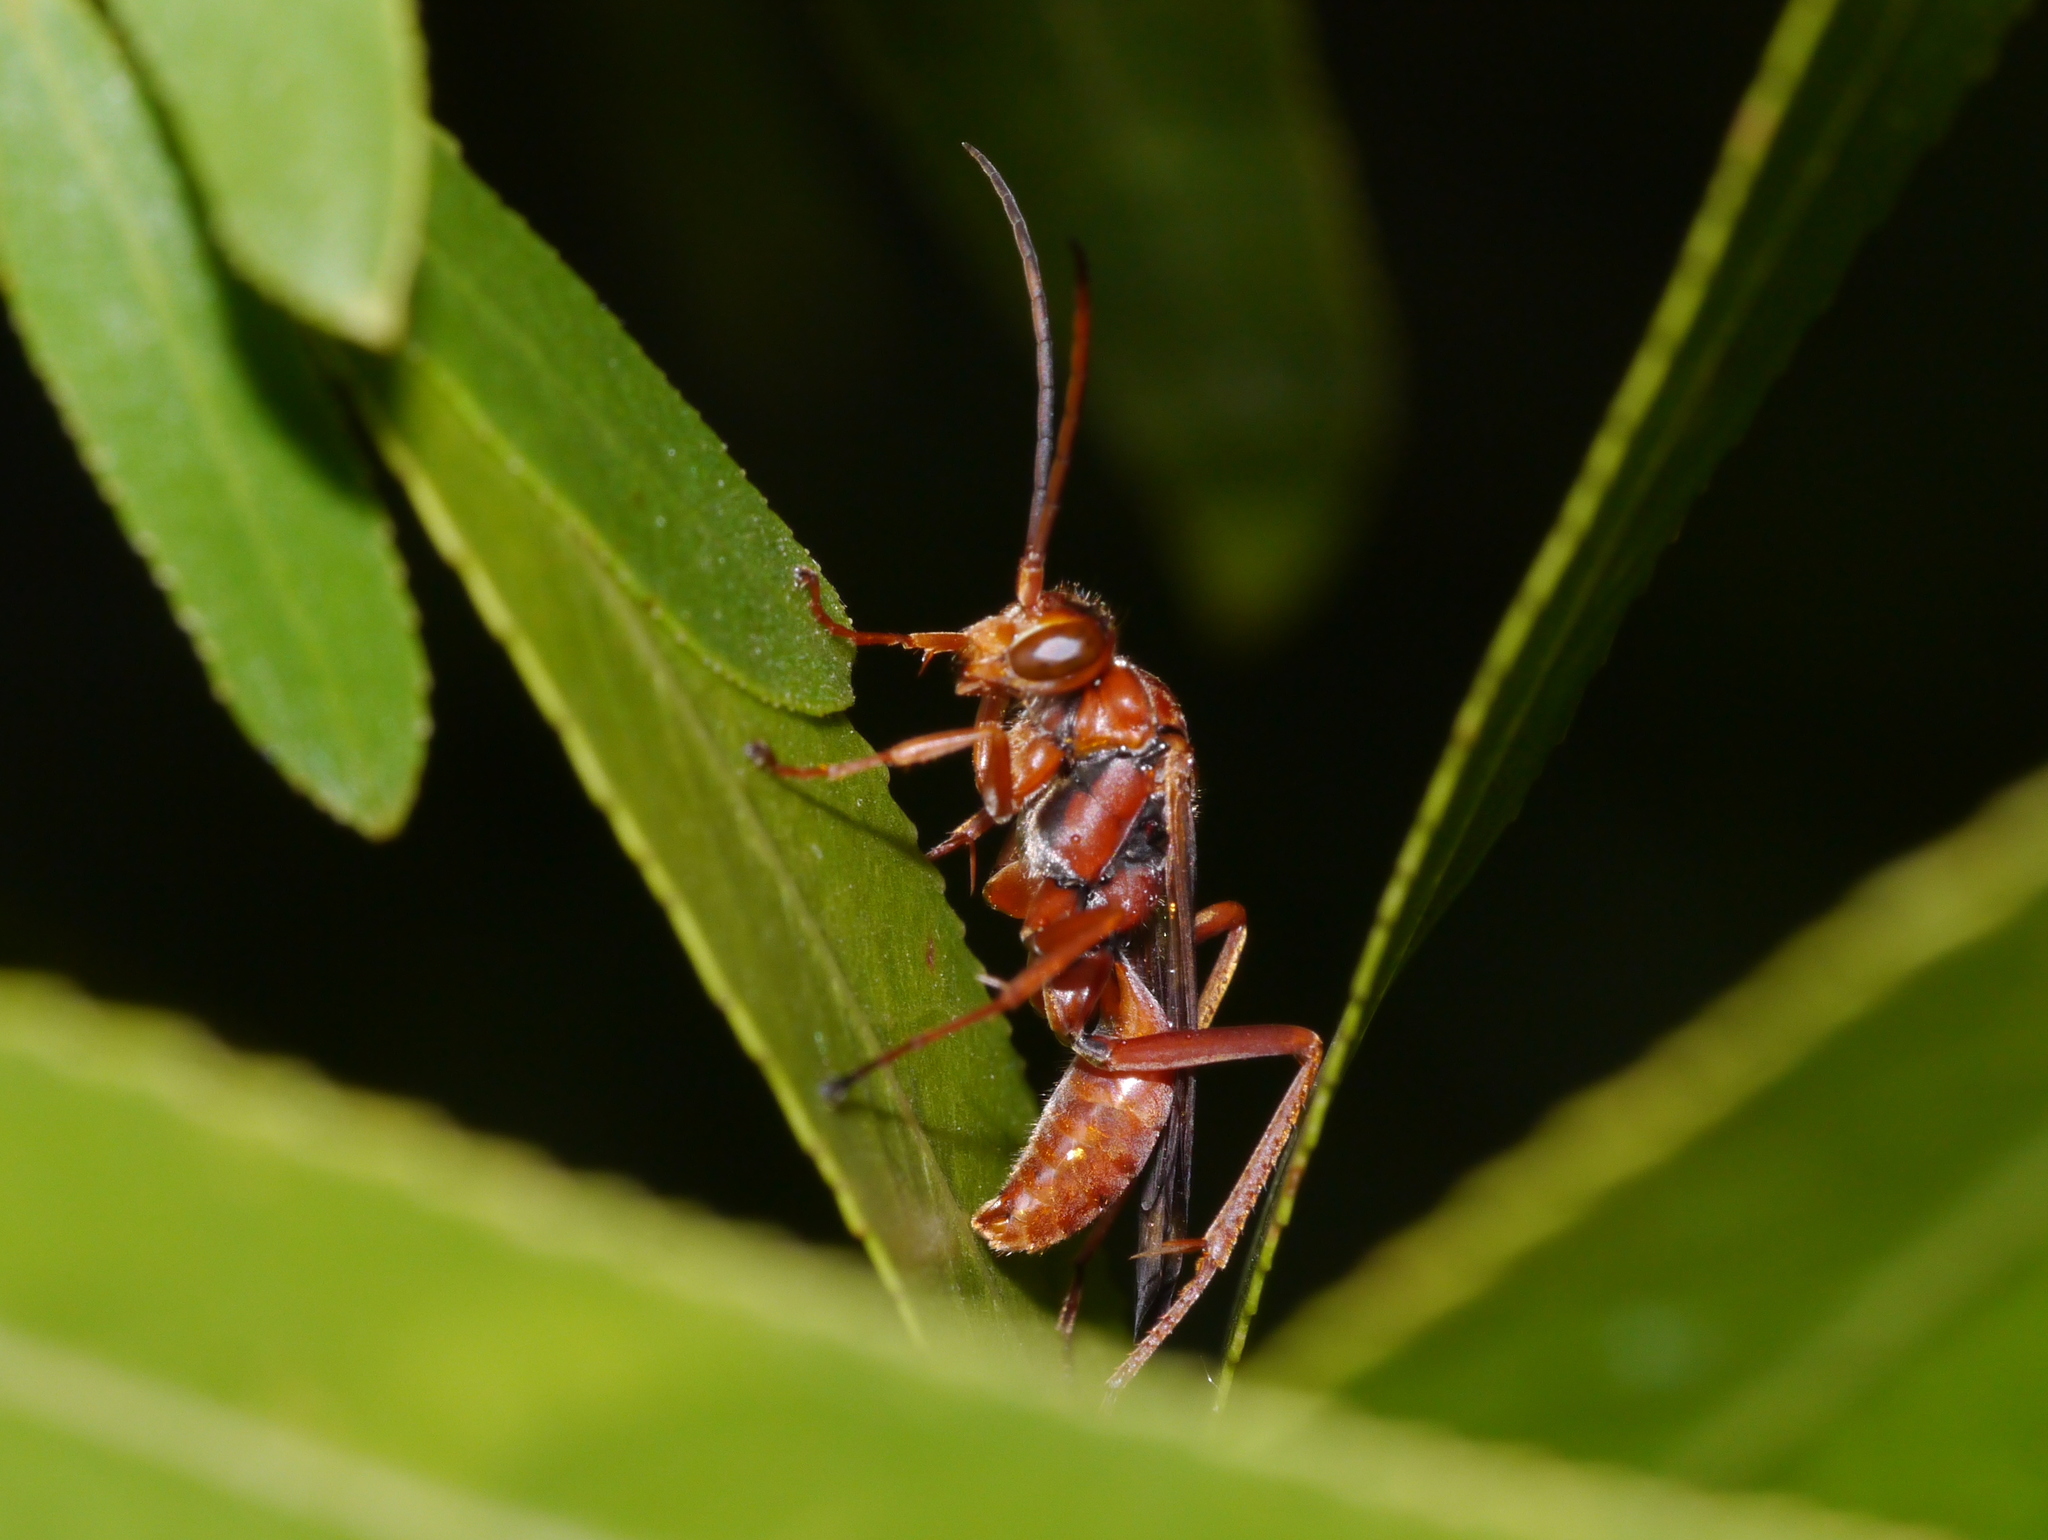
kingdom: Animalia
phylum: Arthropoda
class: Insecta
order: Hymenoptera
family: Pompilidae
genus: Ageniella
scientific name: Ageniella accepta
